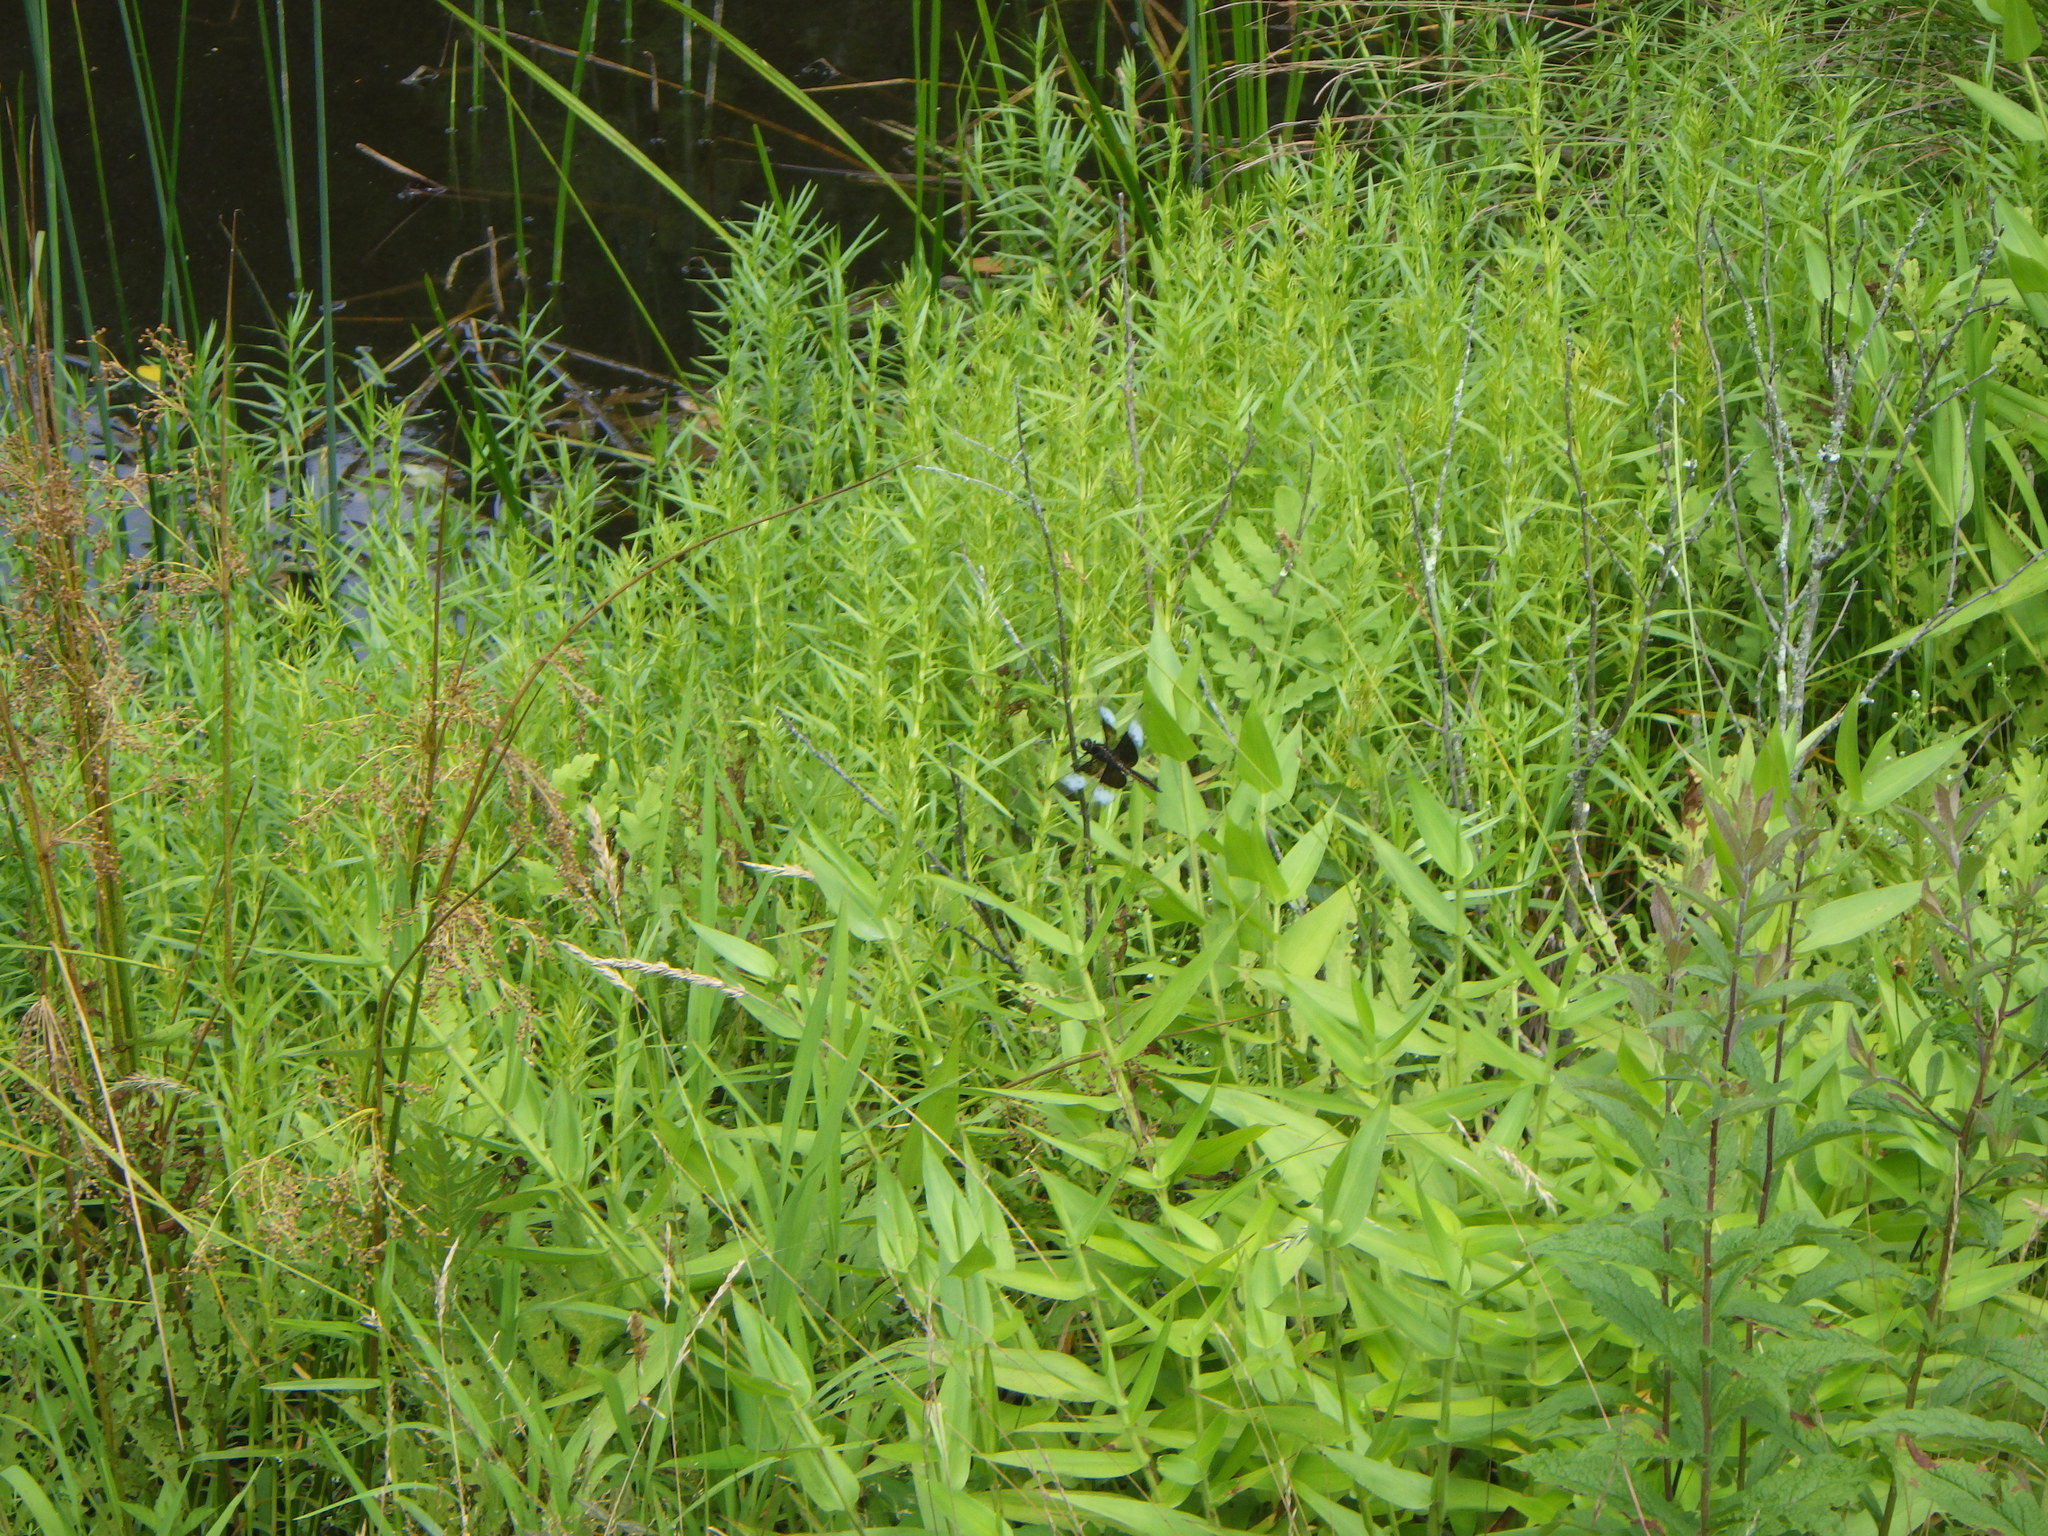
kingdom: Animalia
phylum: Arthropoda
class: Insecta
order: Odonata
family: Libellulidae
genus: Libellula
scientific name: Libellula luctuosa
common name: Widow skimmer
